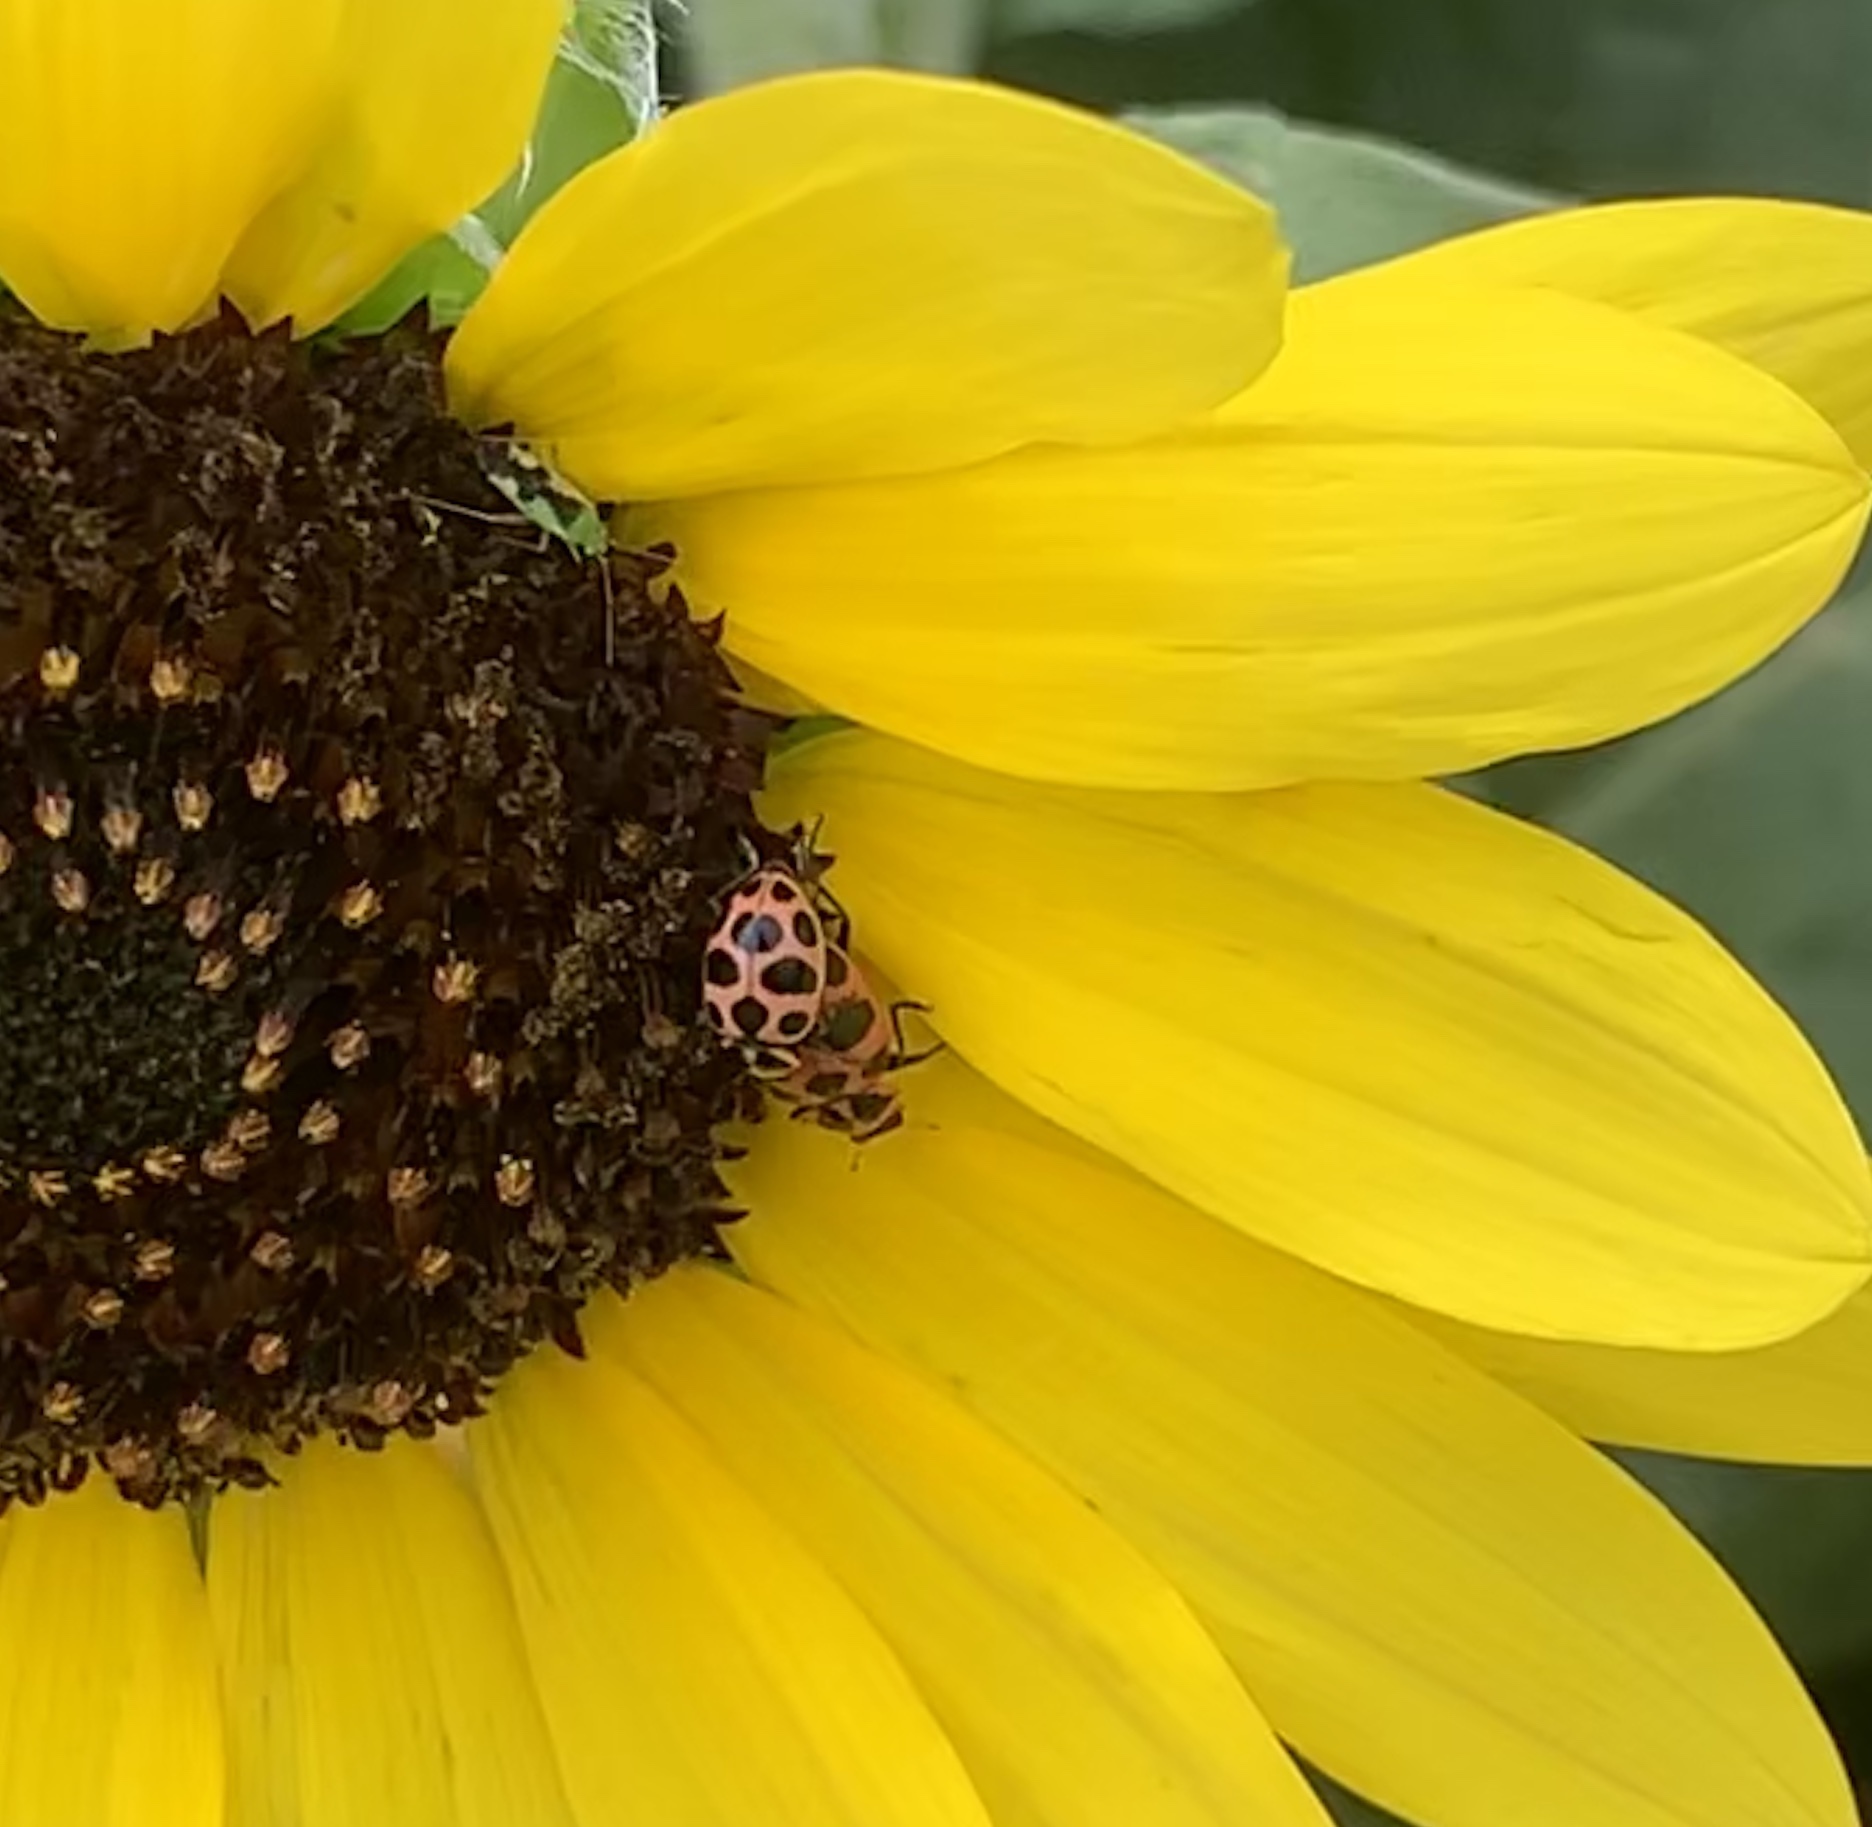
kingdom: Animalia
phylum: Arthropoda
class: Insecta
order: Coleoptera
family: Coccinellidae
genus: Coleomegilla
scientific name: Coleomegilla maculata
